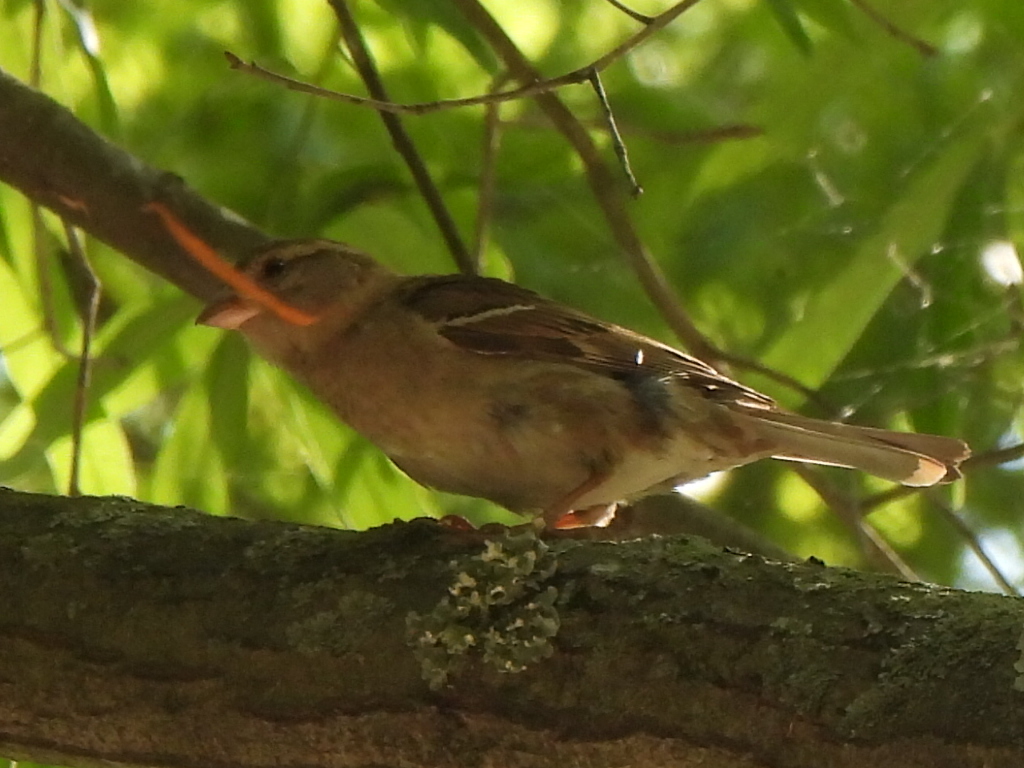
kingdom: Animalia
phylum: Chordata
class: Aves
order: Passeriformes
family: Passeridae
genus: Passer
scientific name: Passer domesticus
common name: House sparrow
